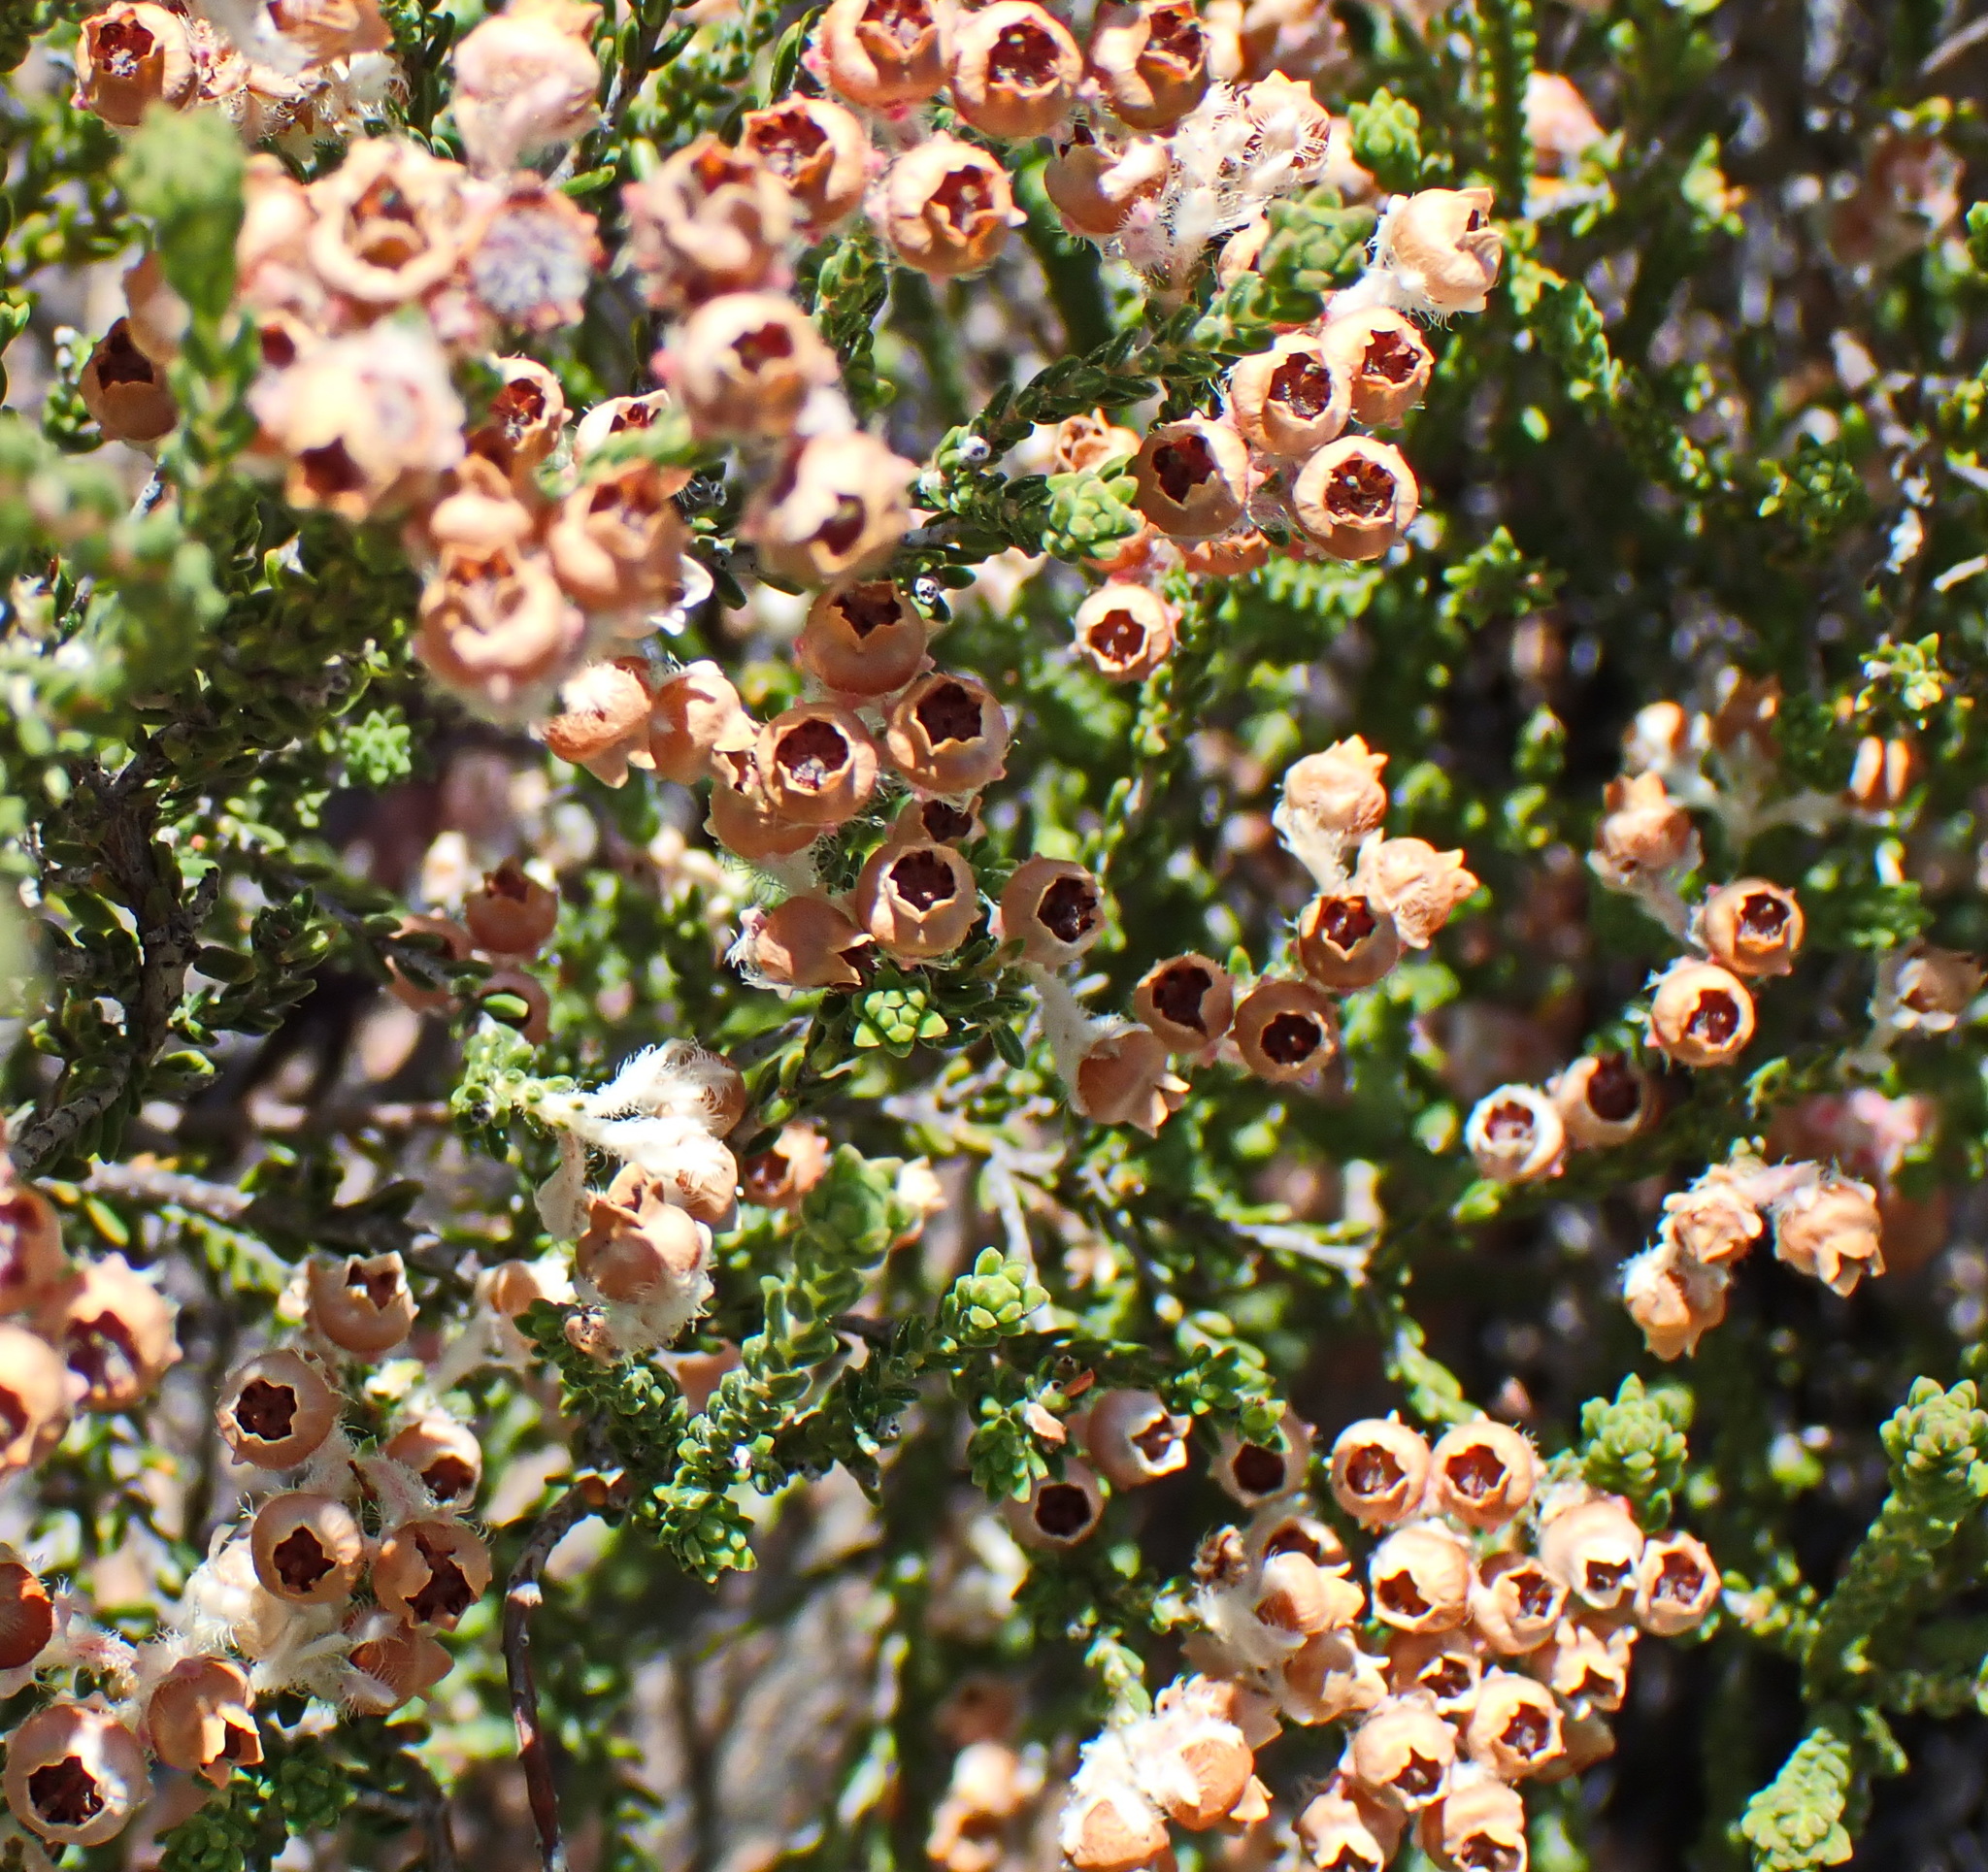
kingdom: Plantae
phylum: Tracheophyta
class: Magnoliopsida
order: Ericales
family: Ericaceae
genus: Erica
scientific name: Erica fimbriata
